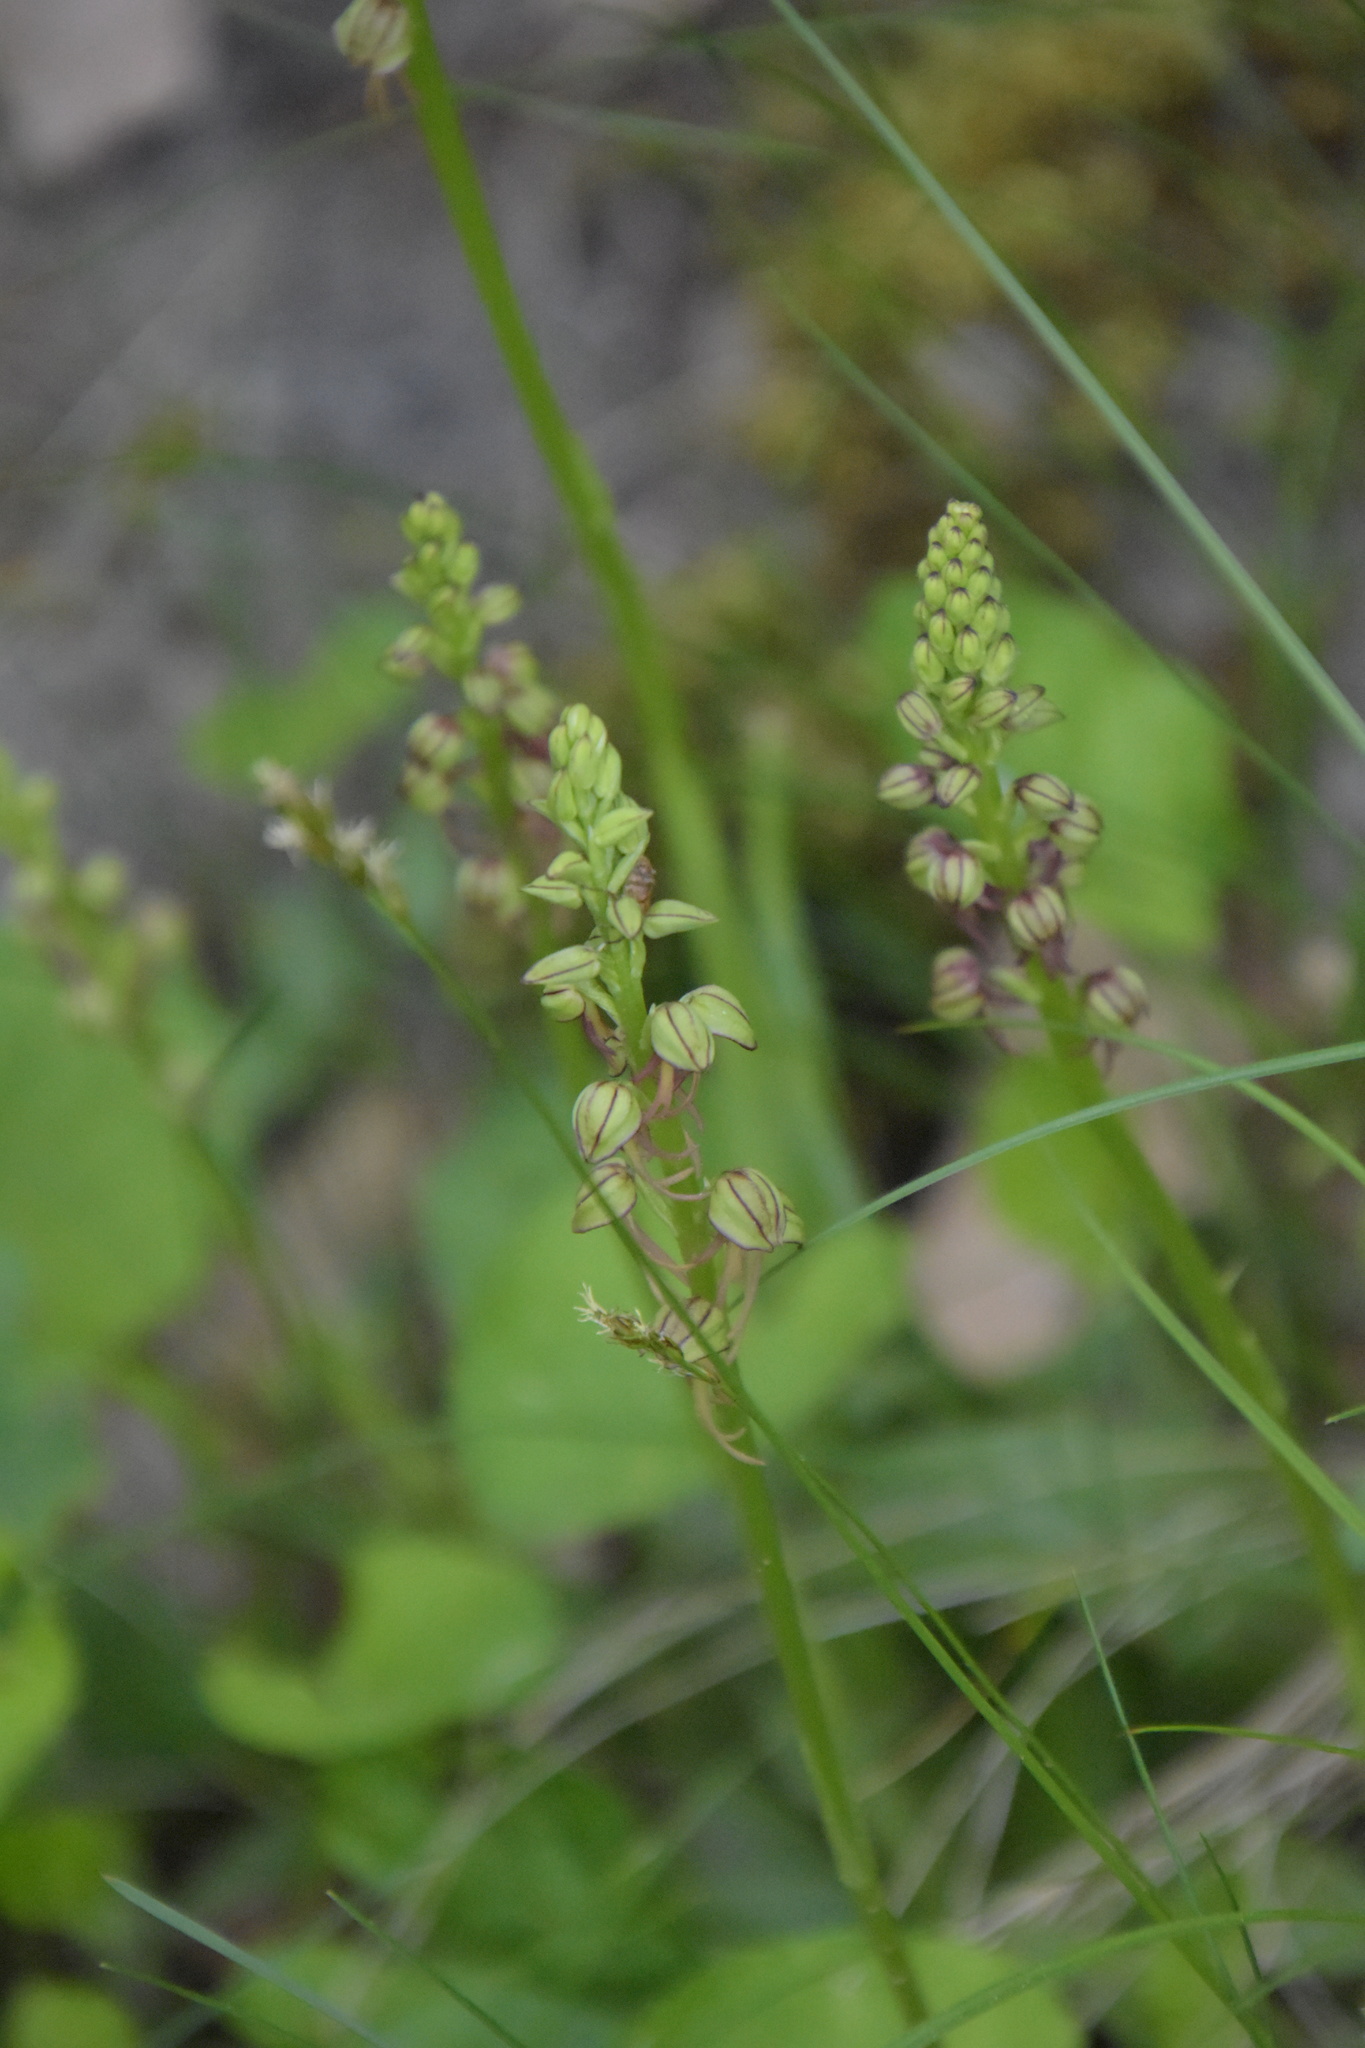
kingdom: Plantae
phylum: Tracheophyta
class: Liliopsida
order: Asparagales
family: Orchidaceae
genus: Orchis
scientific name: Orchis anthropophora
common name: Man orchid
